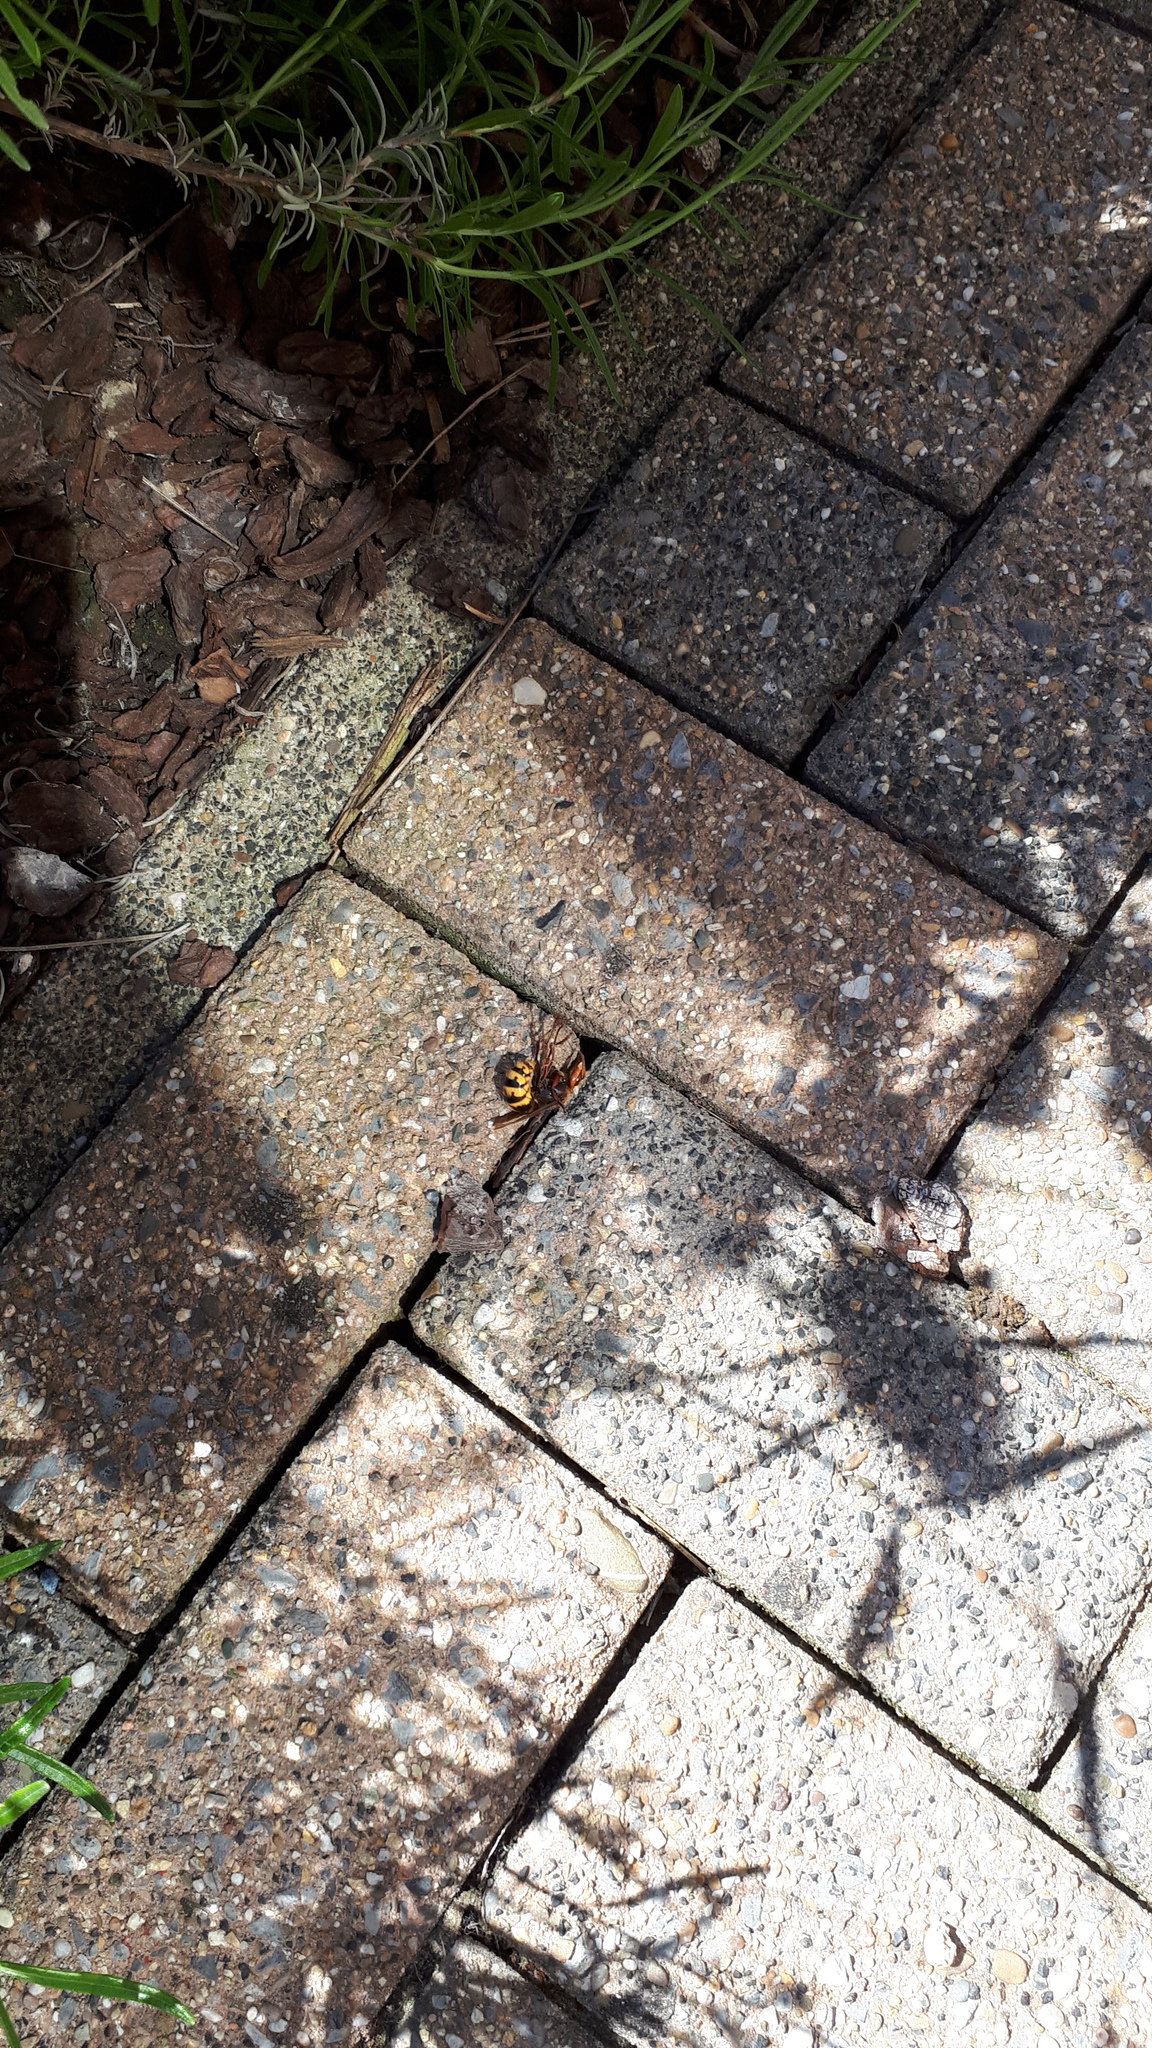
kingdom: Animalia
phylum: Arthropoda
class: Insecta
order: Hymenoptera
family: Vespidae
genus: Vespa
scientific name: Vespa crabro
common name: Hornet
